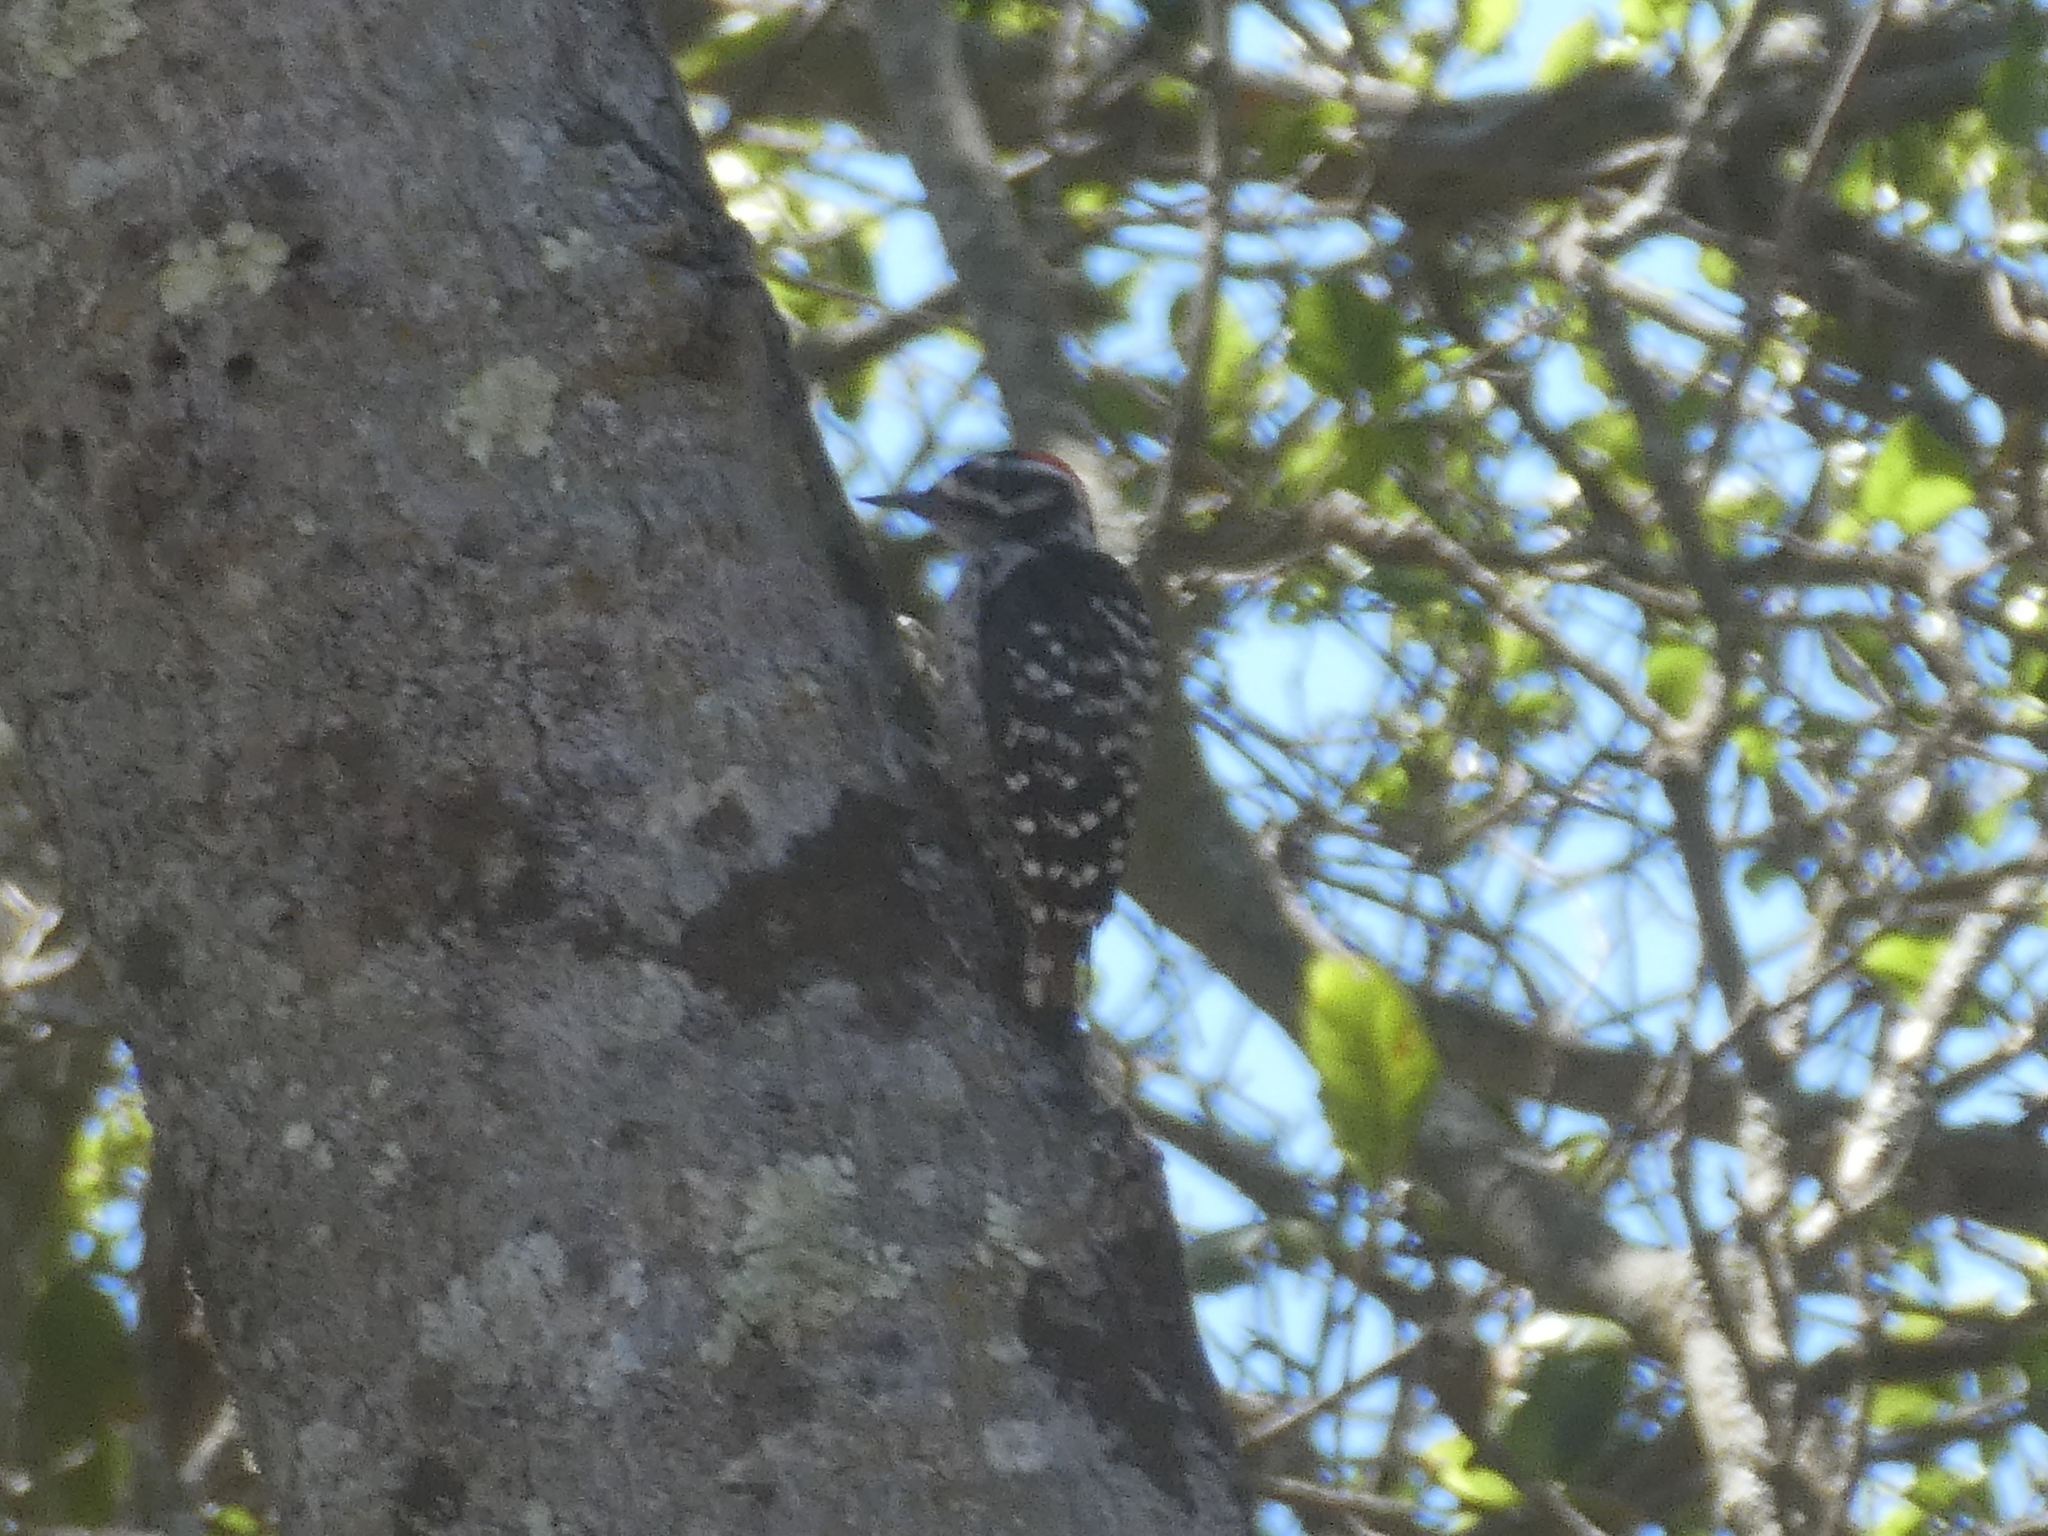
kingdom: Animalia
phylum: Chordata
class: Aves
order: Piciformes
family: Picidae
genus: Dryobates
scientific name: Dryobates nuttallii
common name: Nuttall's woodpecker
